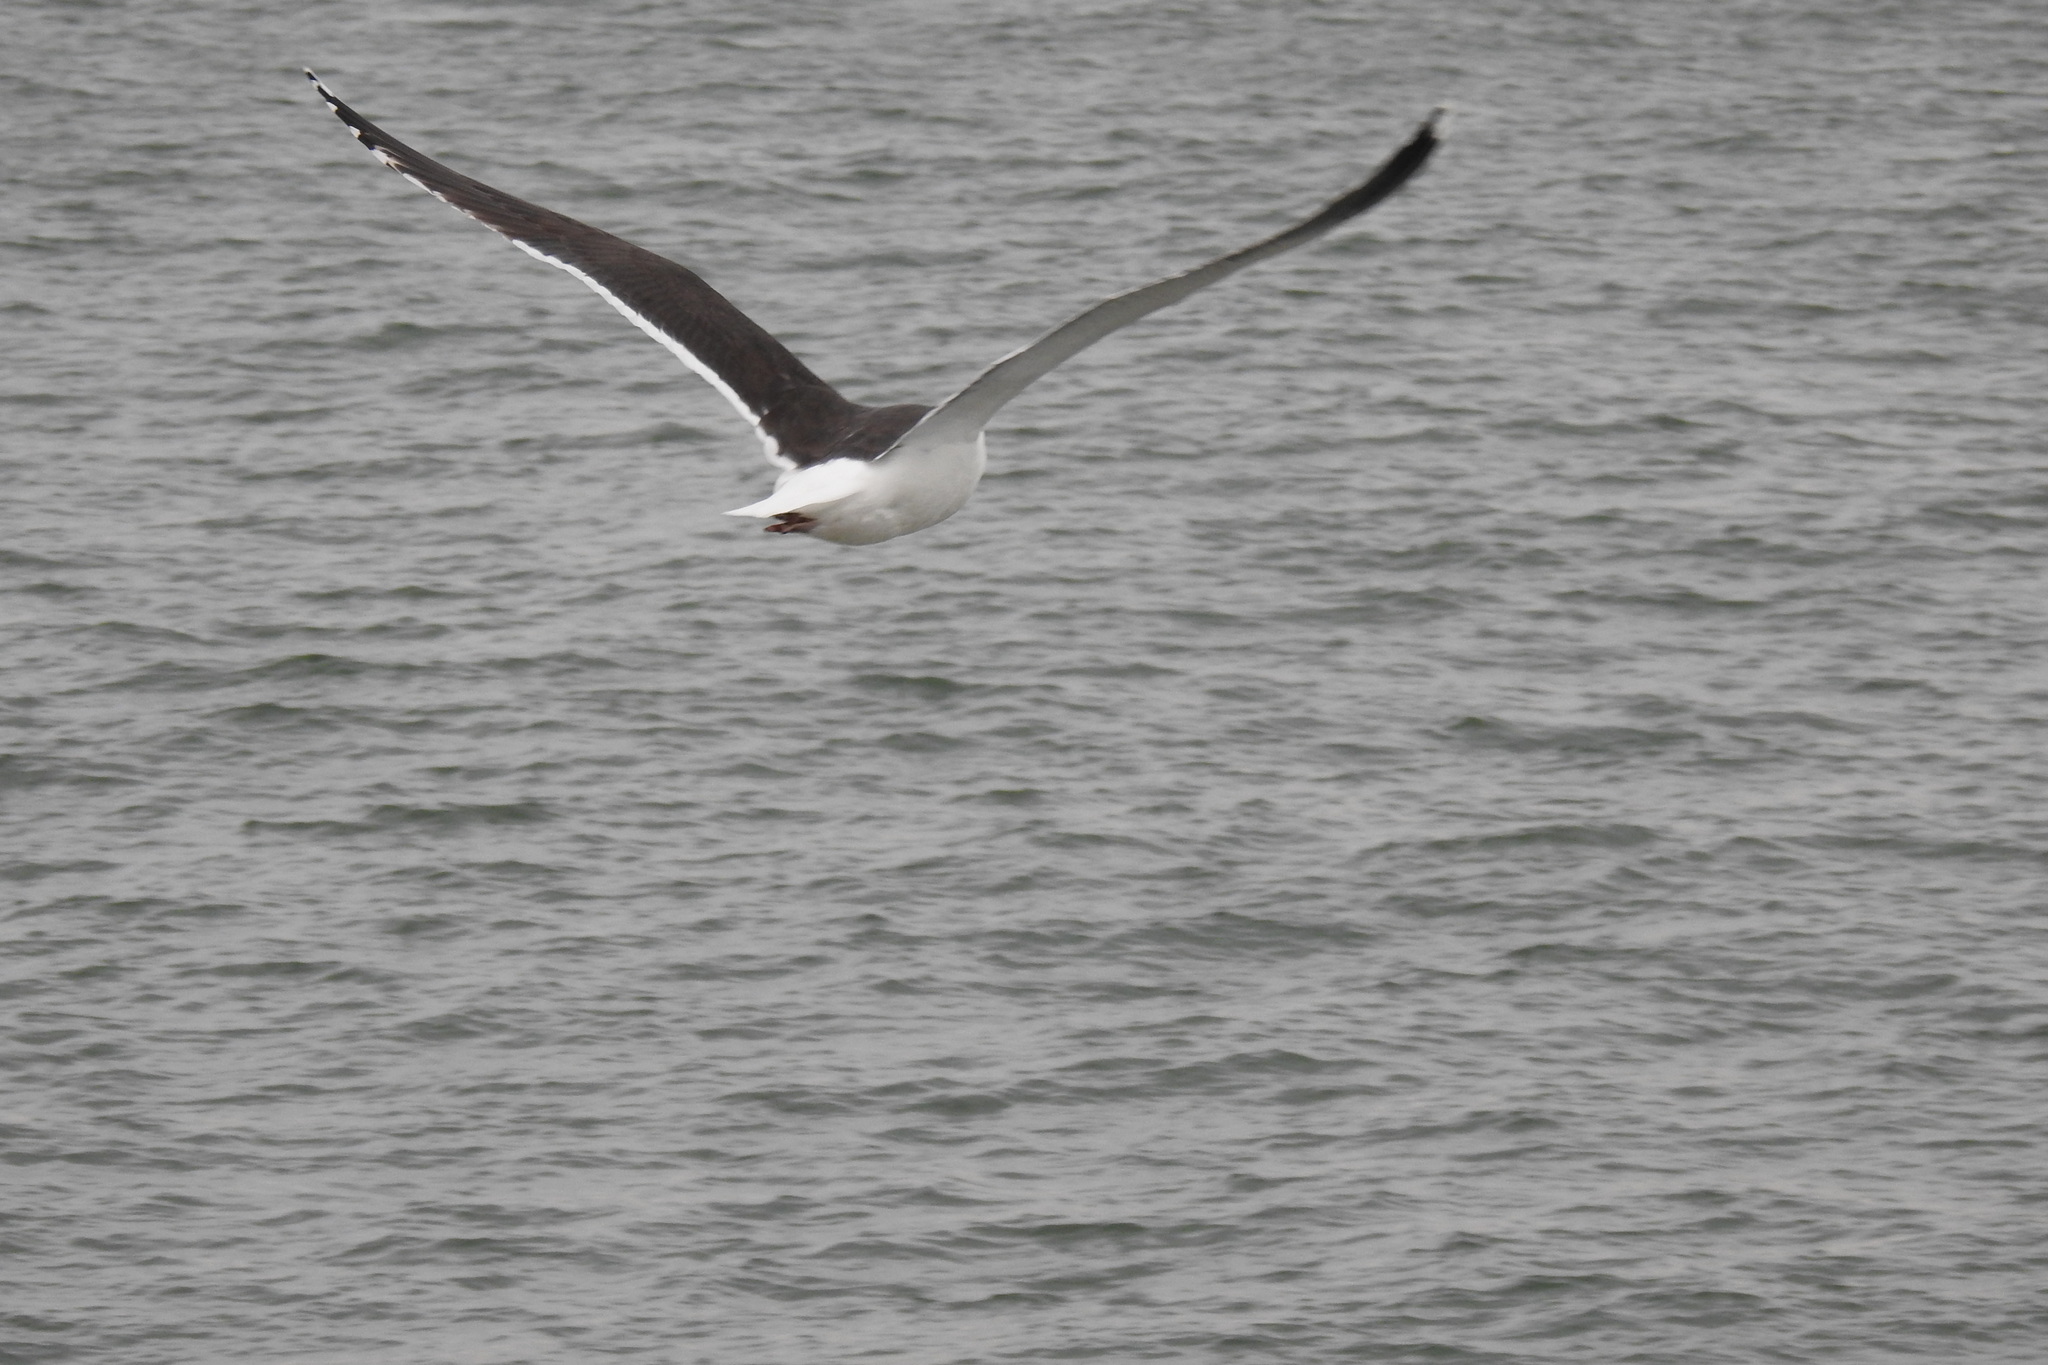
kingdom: Animalia
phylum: Chordata
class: Aves
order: Charadriiformes
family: Laridae
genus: Larus
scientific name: Larus marinus
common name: Great black-backed gull
